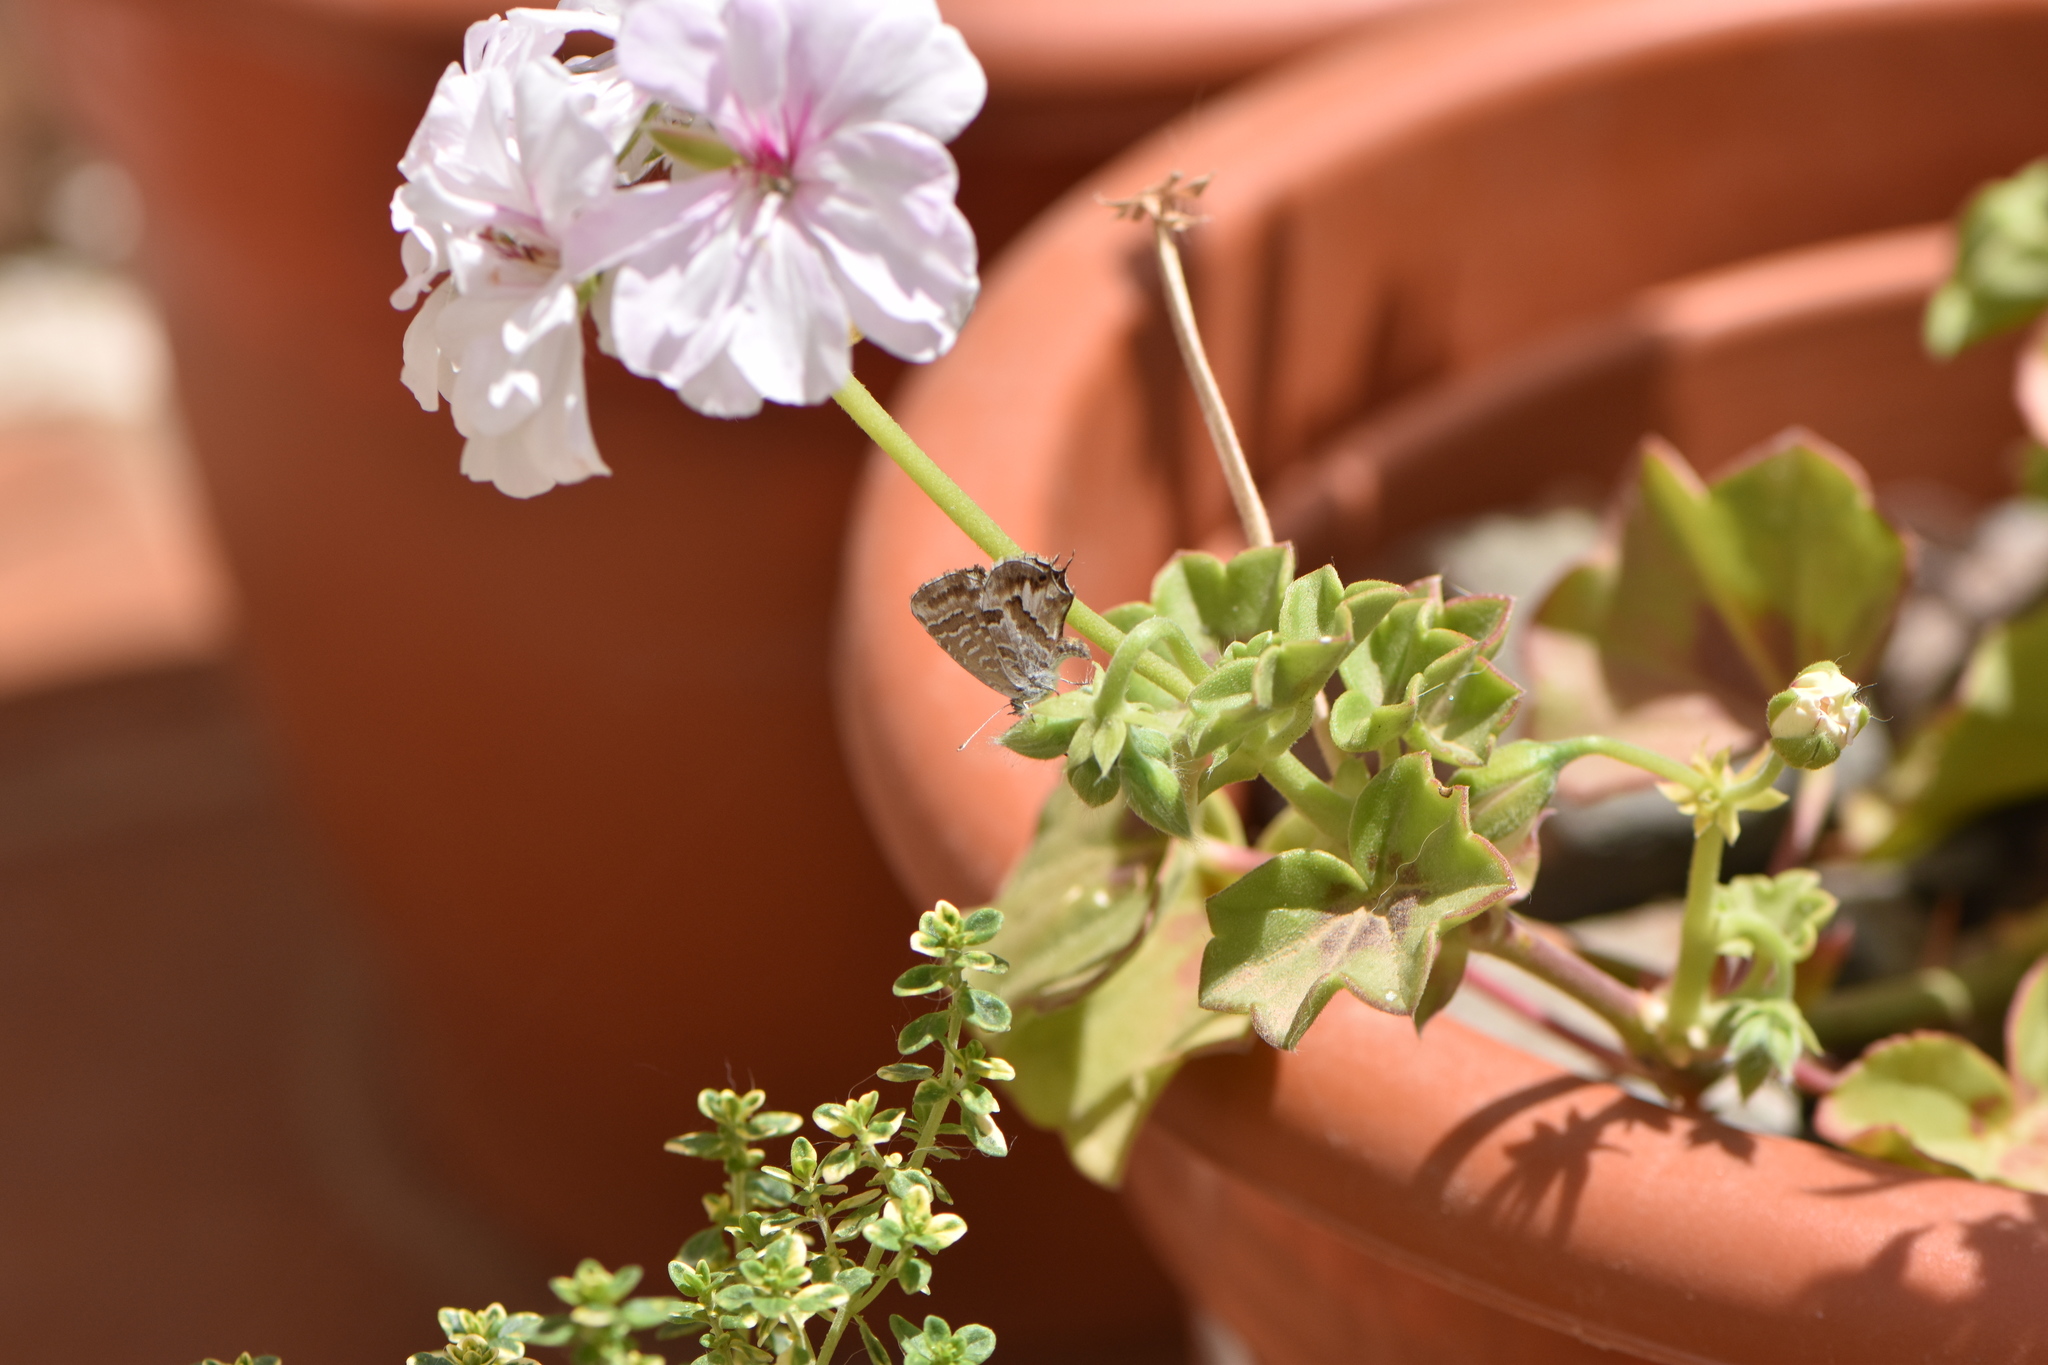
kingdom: Animalia
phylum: Arthropoda
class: Insecta
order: Lepidoptera
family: Lycaenidae
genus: Cacyreus
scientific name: Cacyreus marshalli
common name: Geranium bronze
